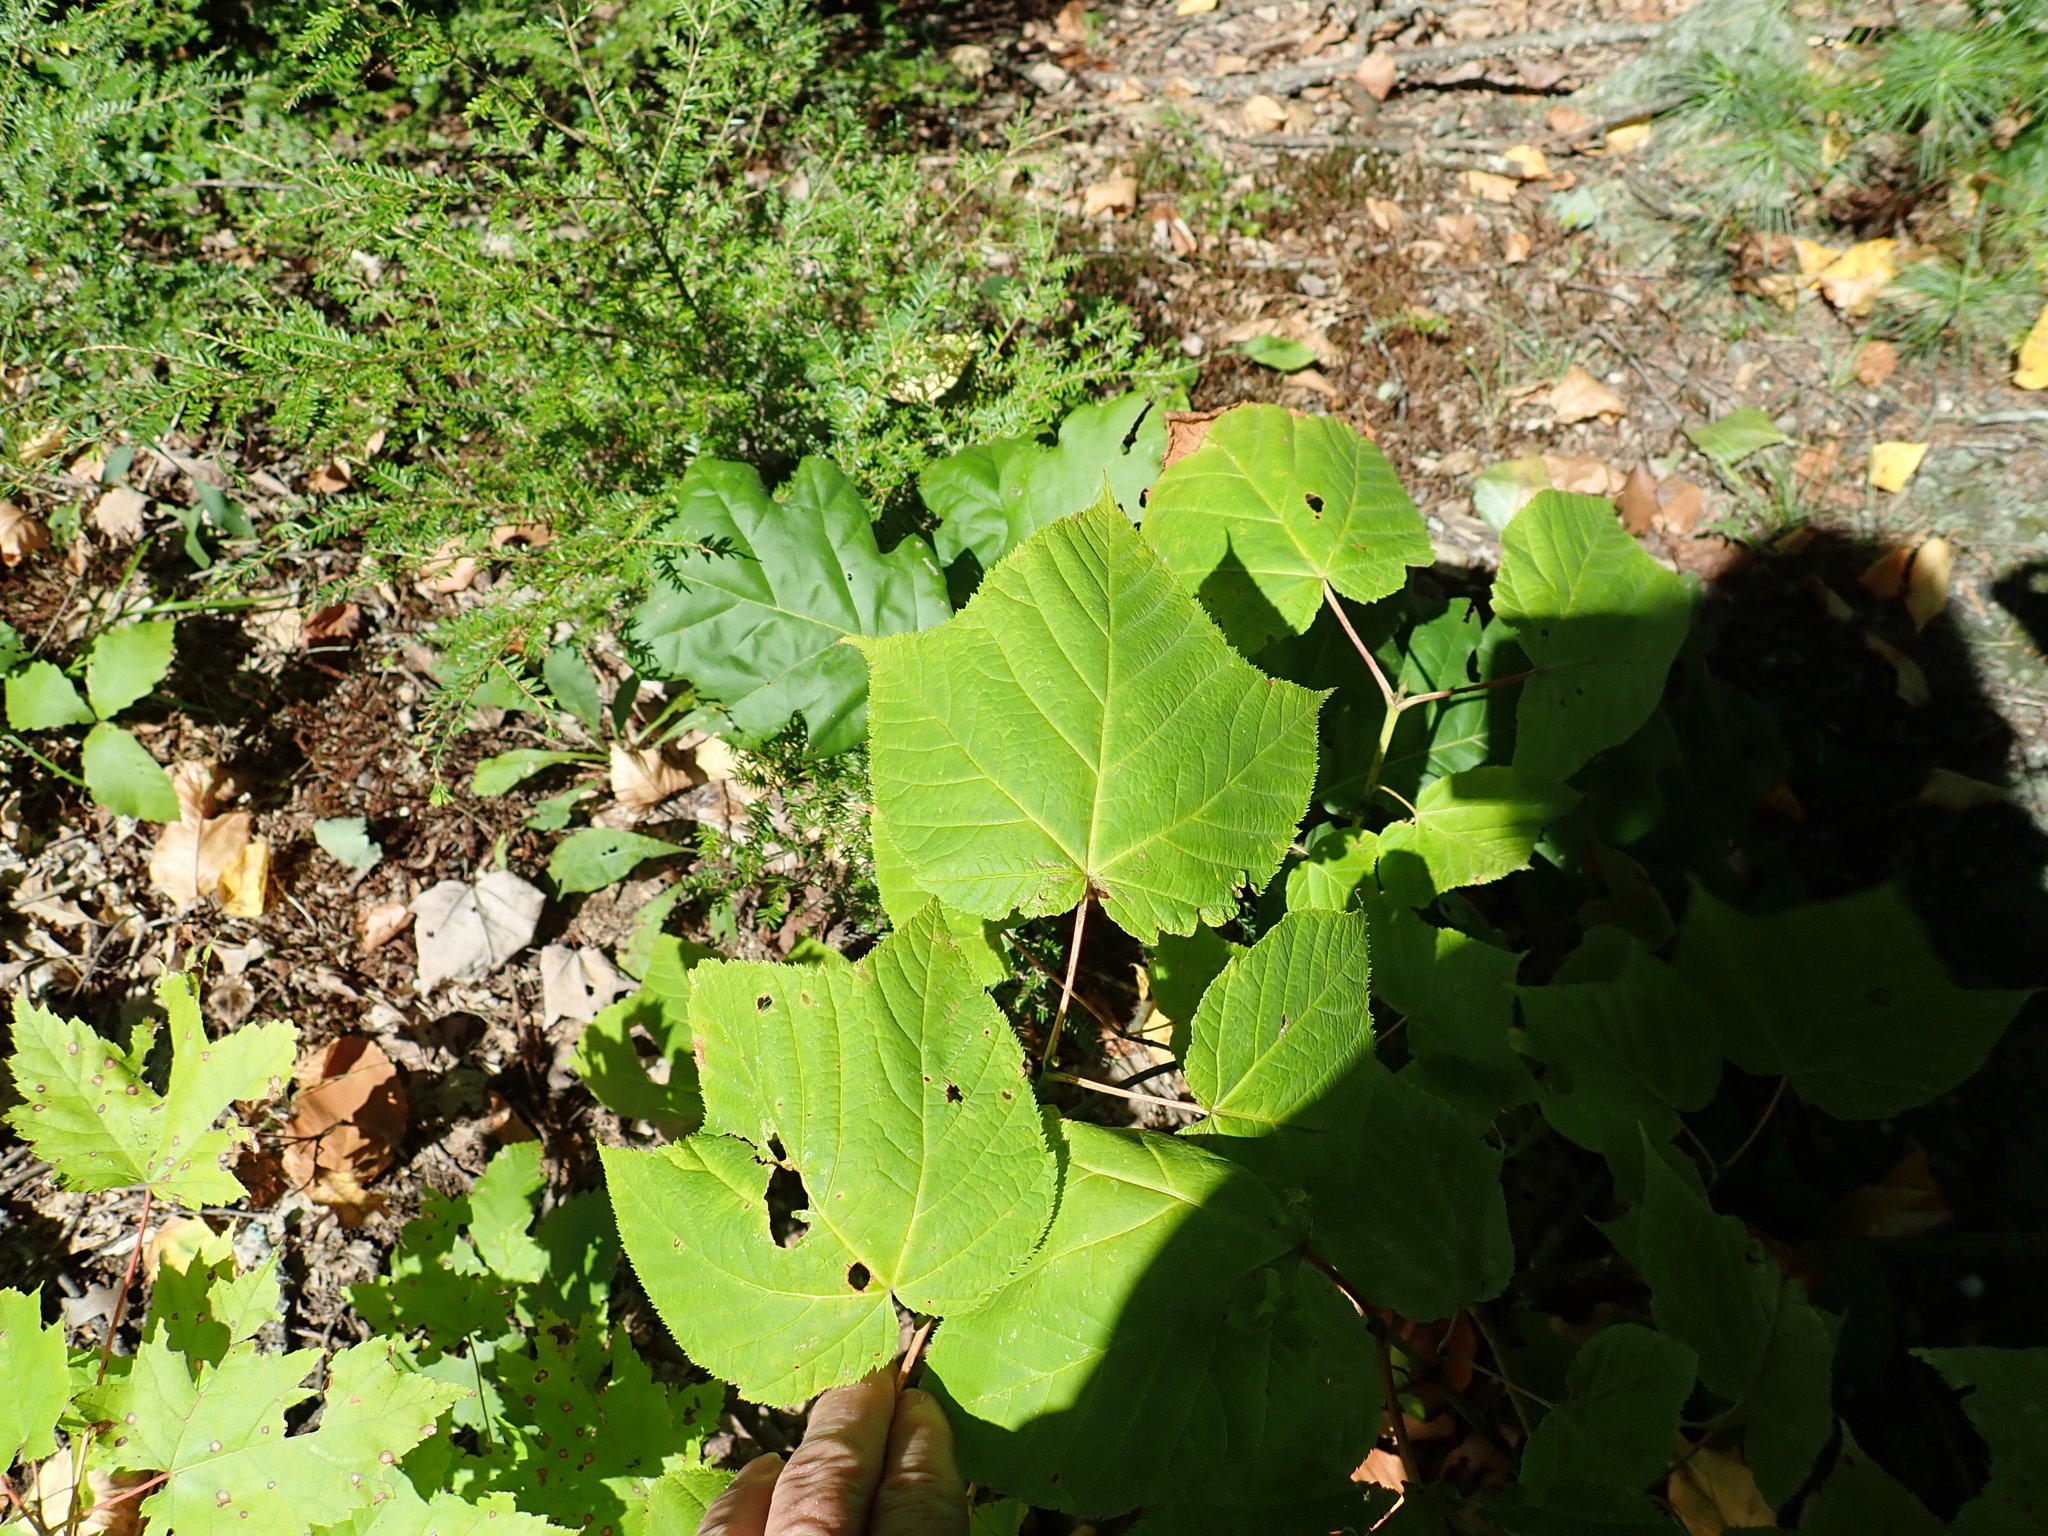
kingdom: Plantae
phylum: Tracheophyta
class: Magnoliopsida
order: Sapindales
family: Sapindaceae
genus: Acer
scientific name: Acer pensylvanicum
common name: Moosewood
